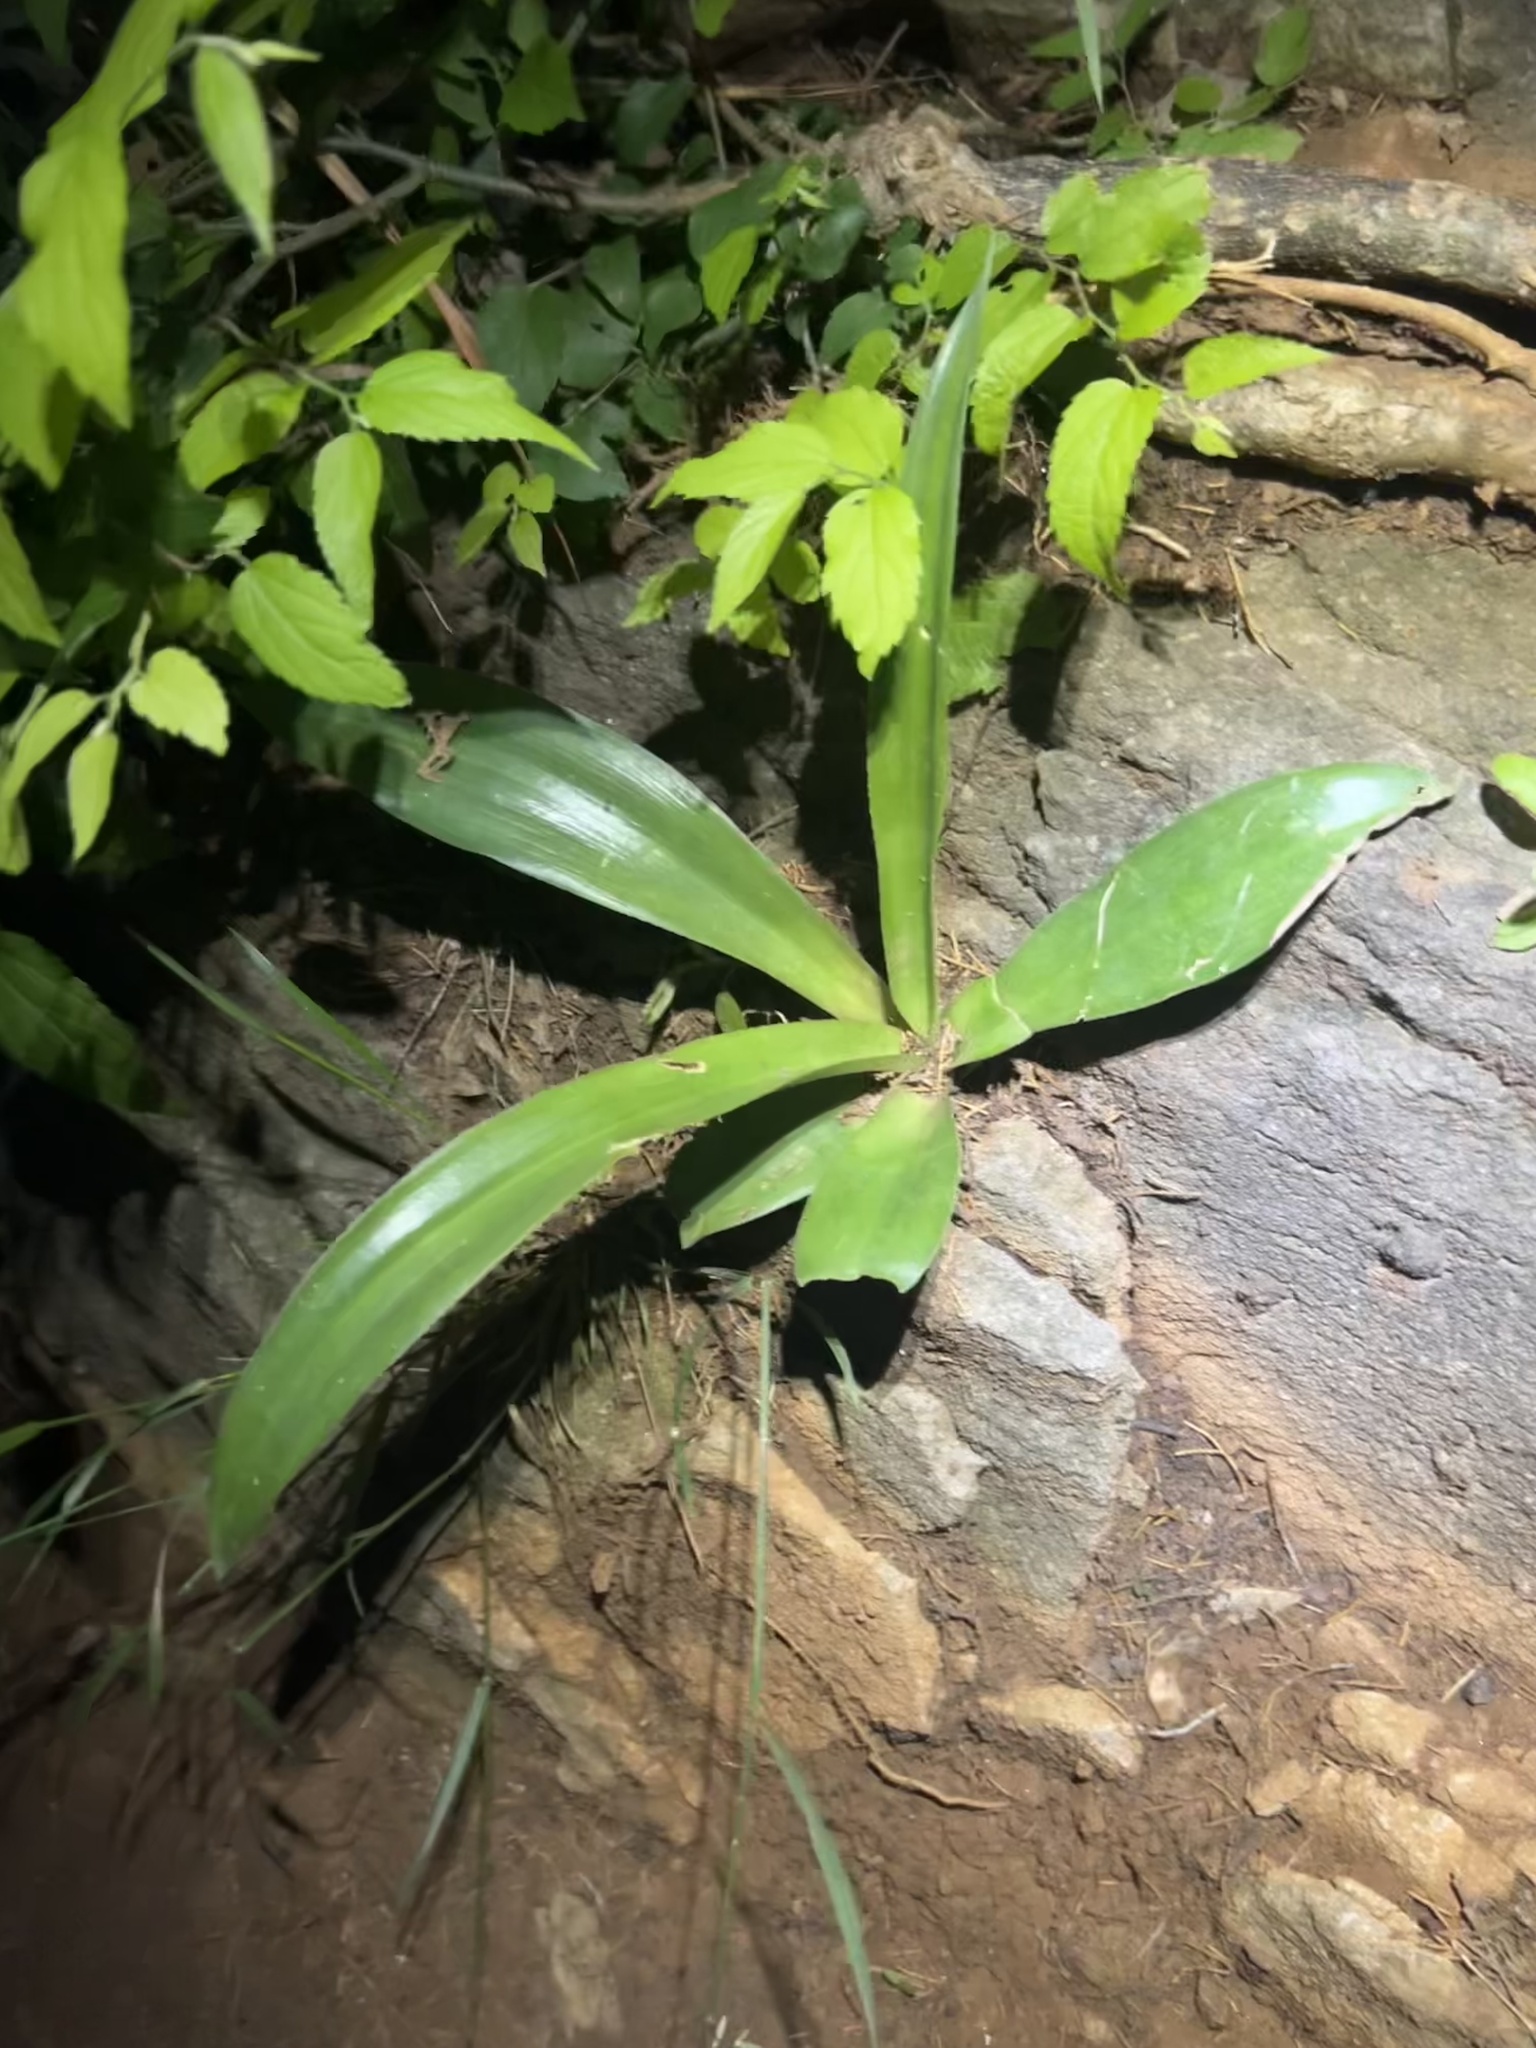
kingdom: Plantae
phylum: Tracheophyta
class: Liliopsida
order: Asparagales
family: Asparagaceae
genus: Agave
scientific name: Agave virginica
